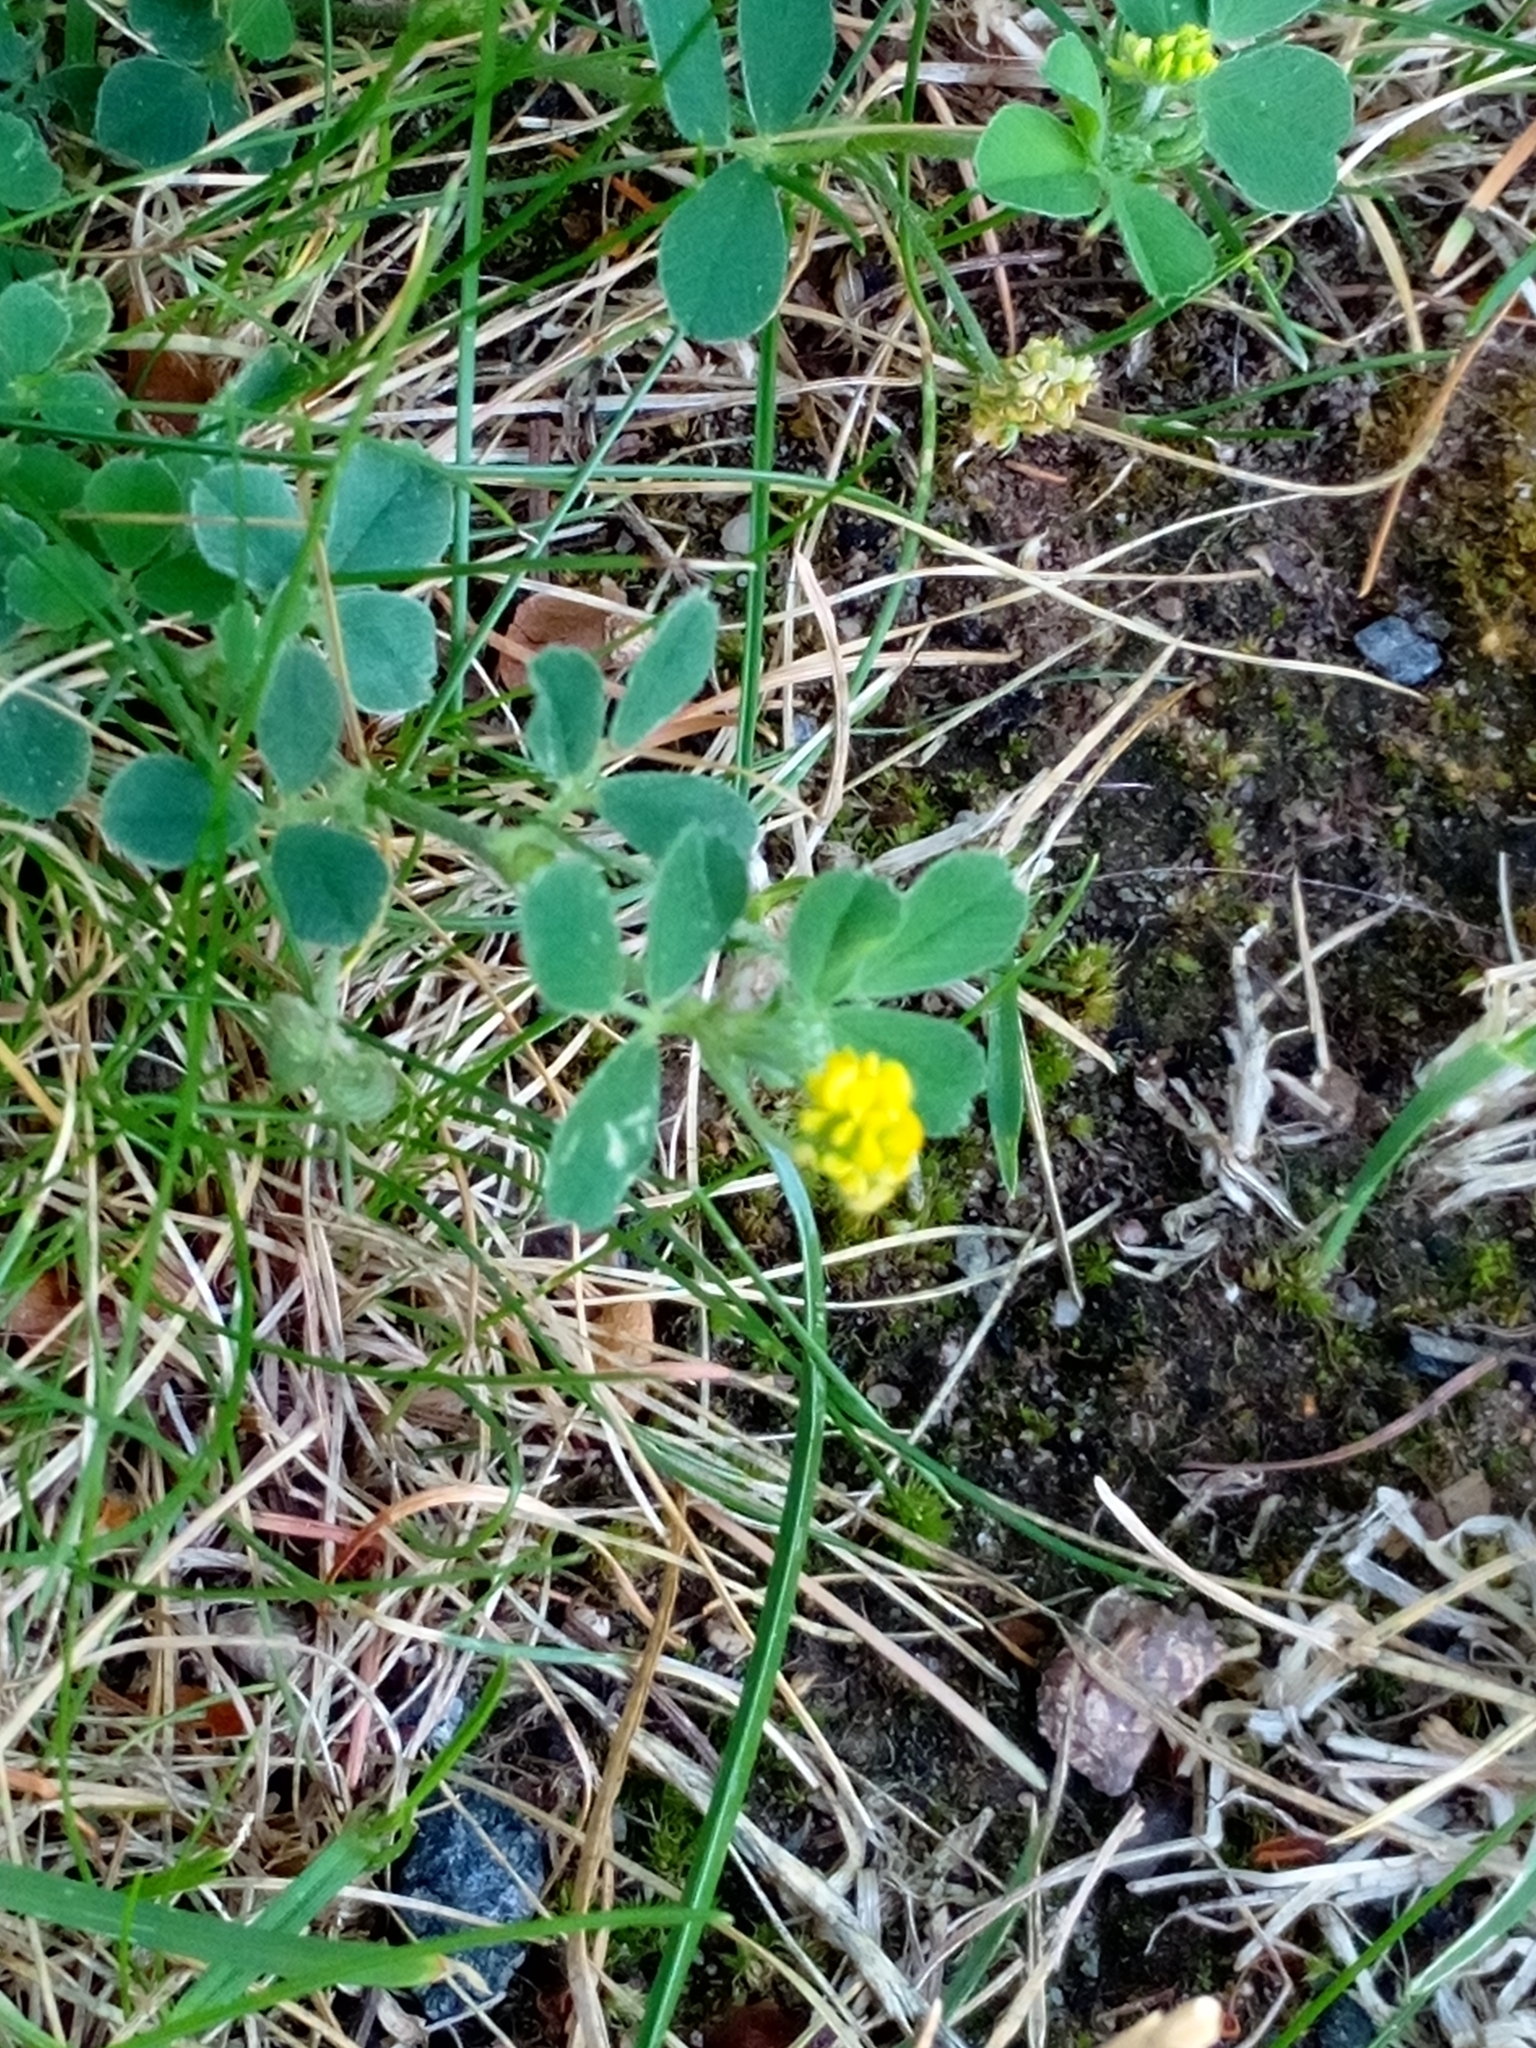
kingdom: Plantae
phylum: Tracheophyta
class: Magnoliopsida
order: Fabales
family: Fabaceae
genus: Medicago
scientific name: Medicago lupulina
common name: Black medick
